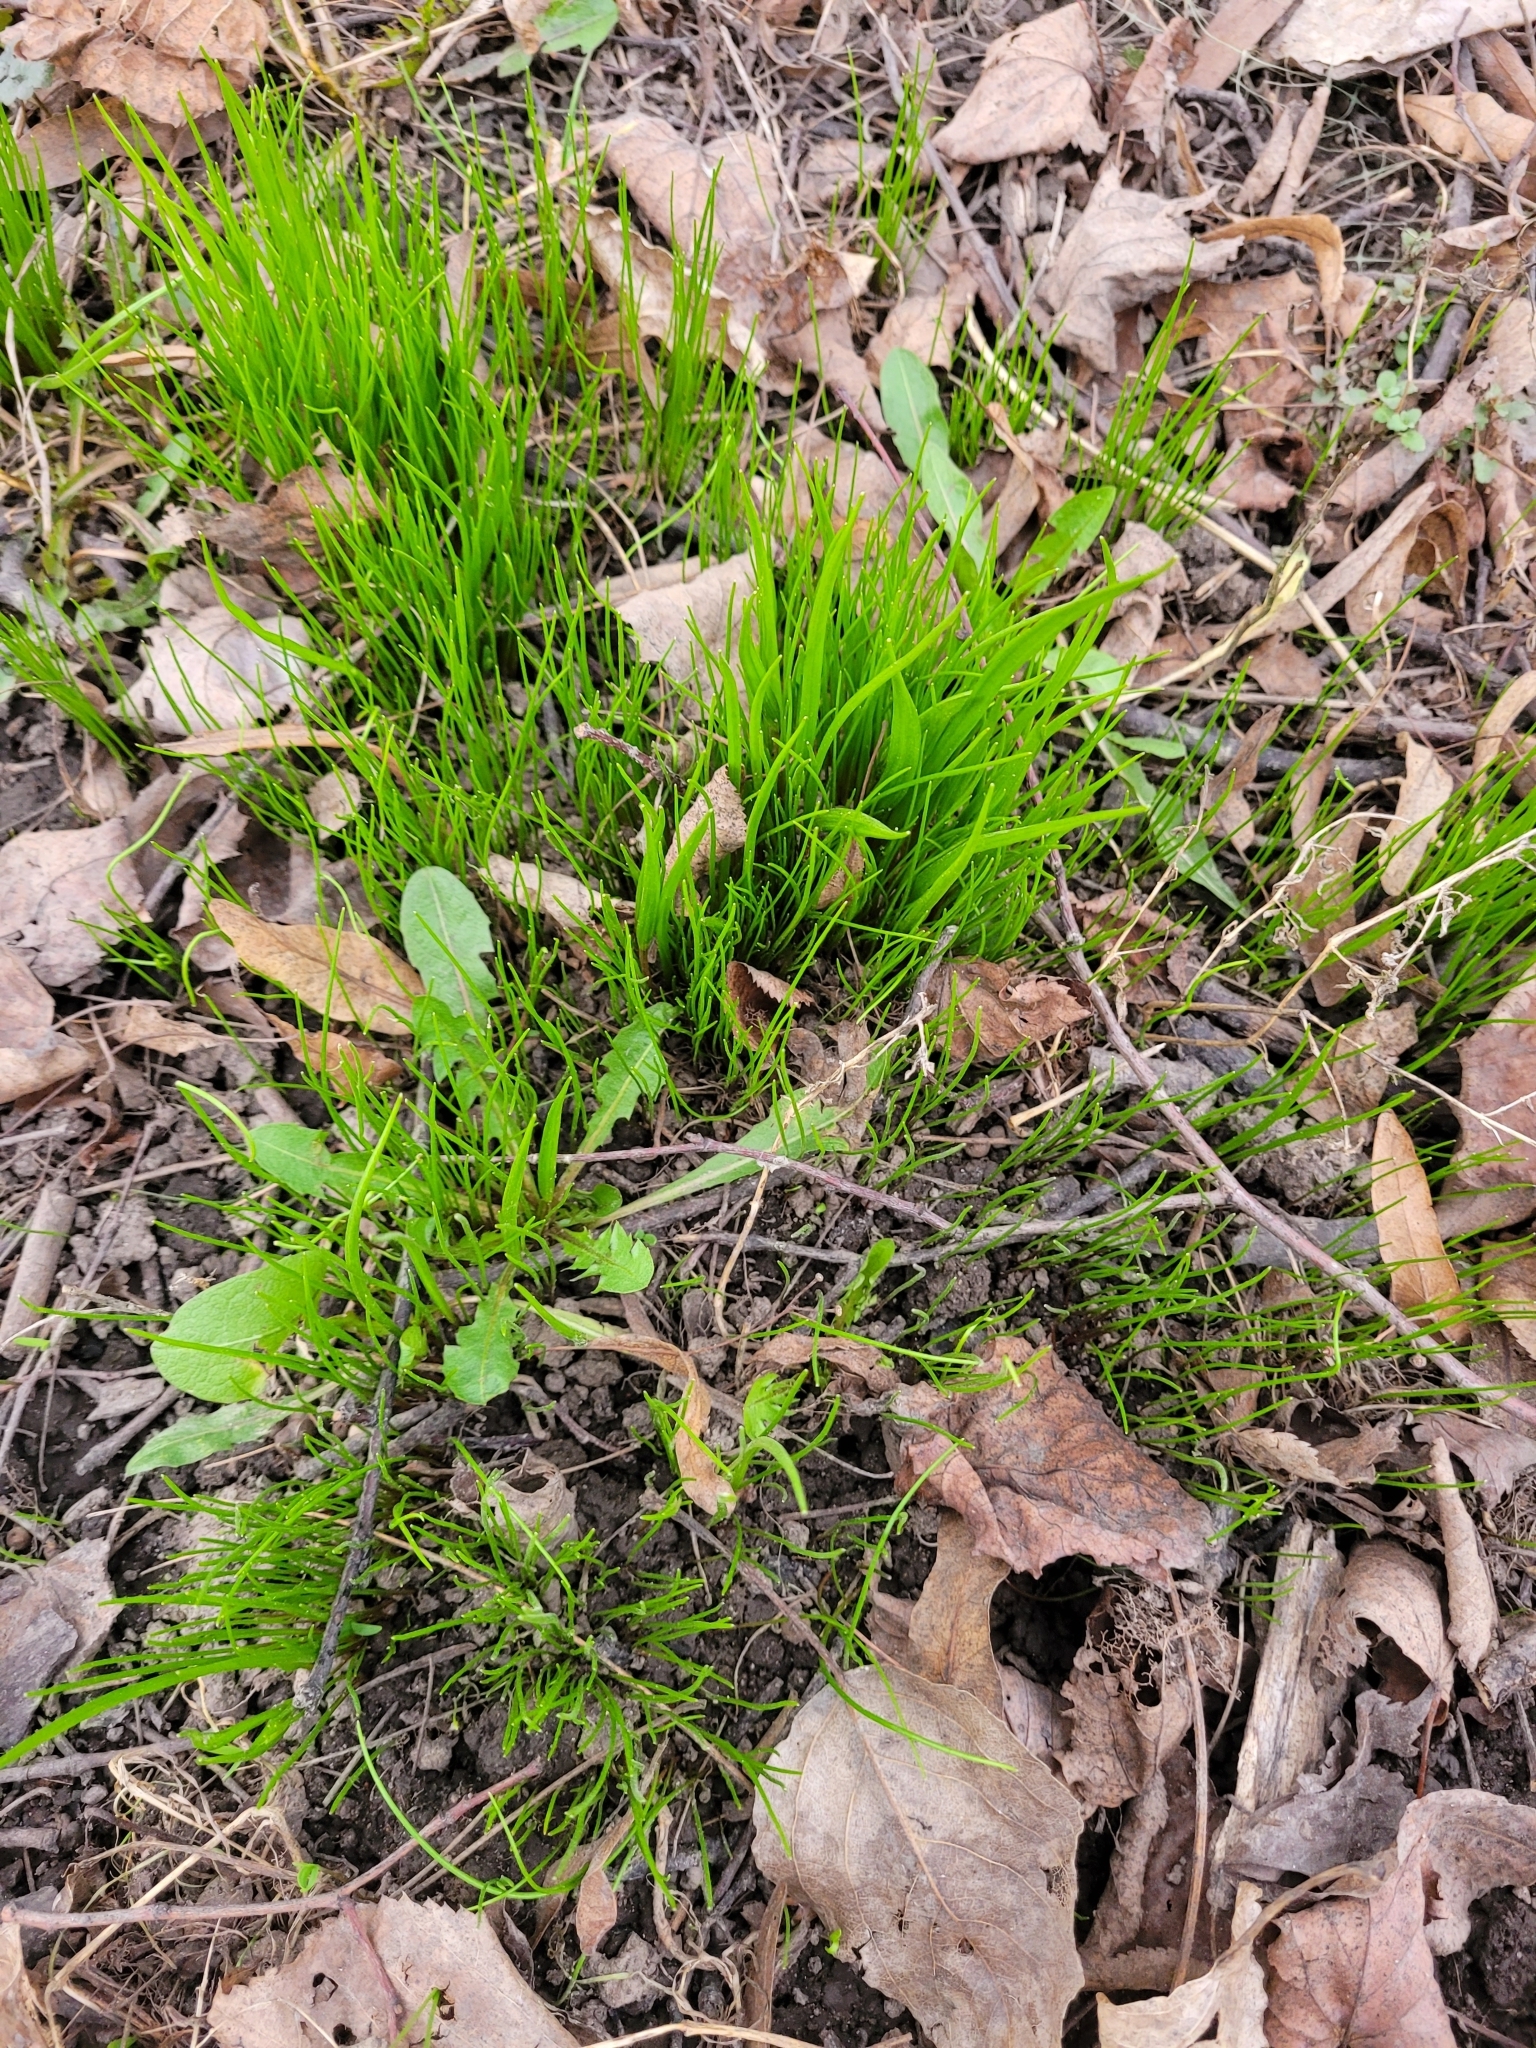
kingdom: Plantae
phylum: Tracheophyta
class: Liliopsida
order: Liliales
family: Liliaceae
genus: Gagea
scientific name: Gagea minima
